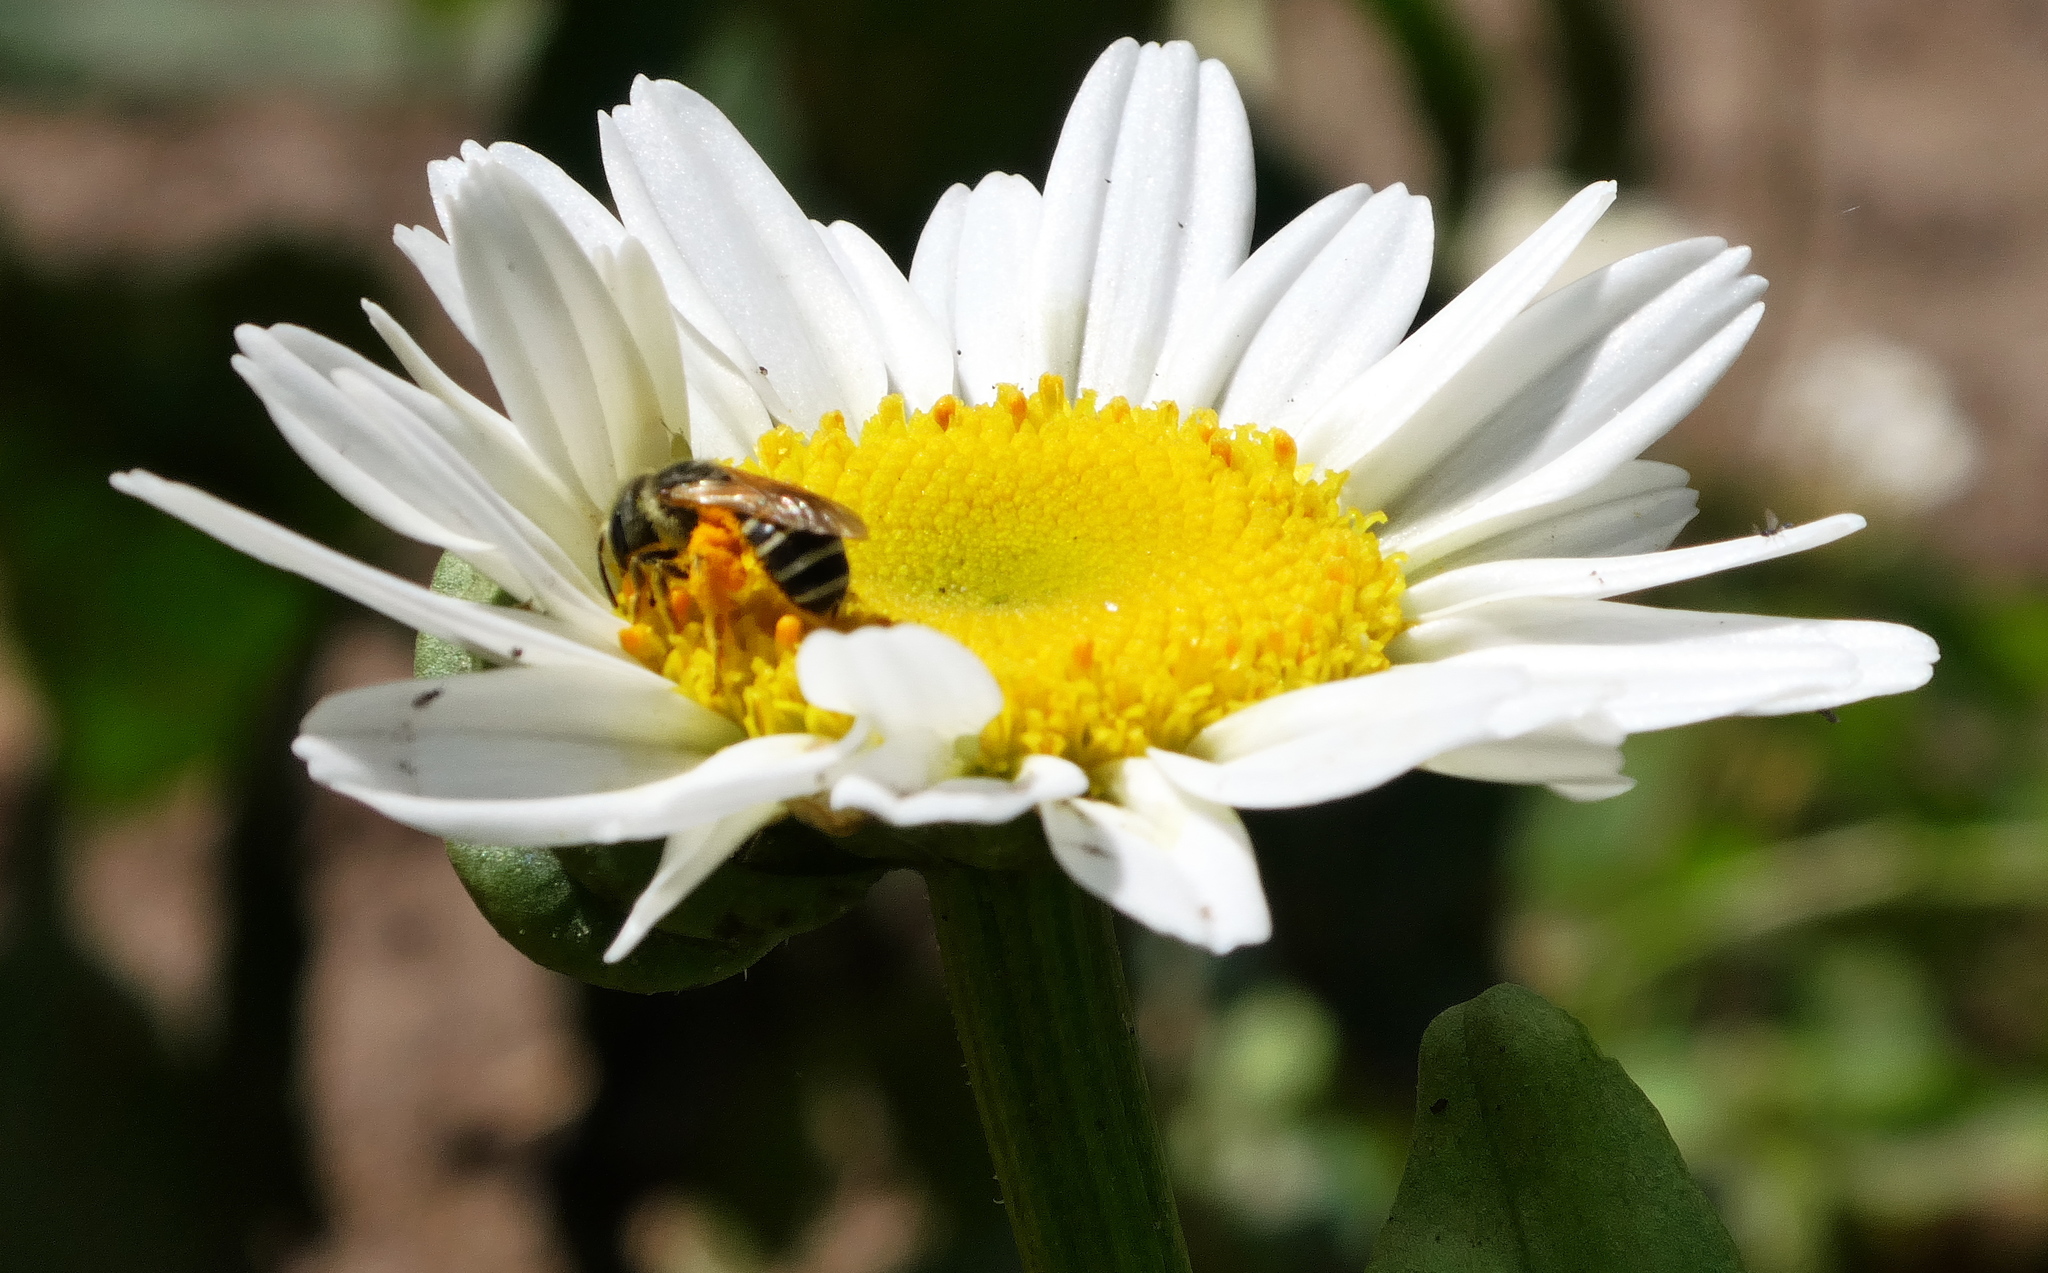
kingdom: Animalia
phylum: Arthropoda
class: Insecta
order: Hymenoptera
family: Halictidae
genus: Halictus
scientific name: Halictus ligatus
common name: Ligated furrow bee
